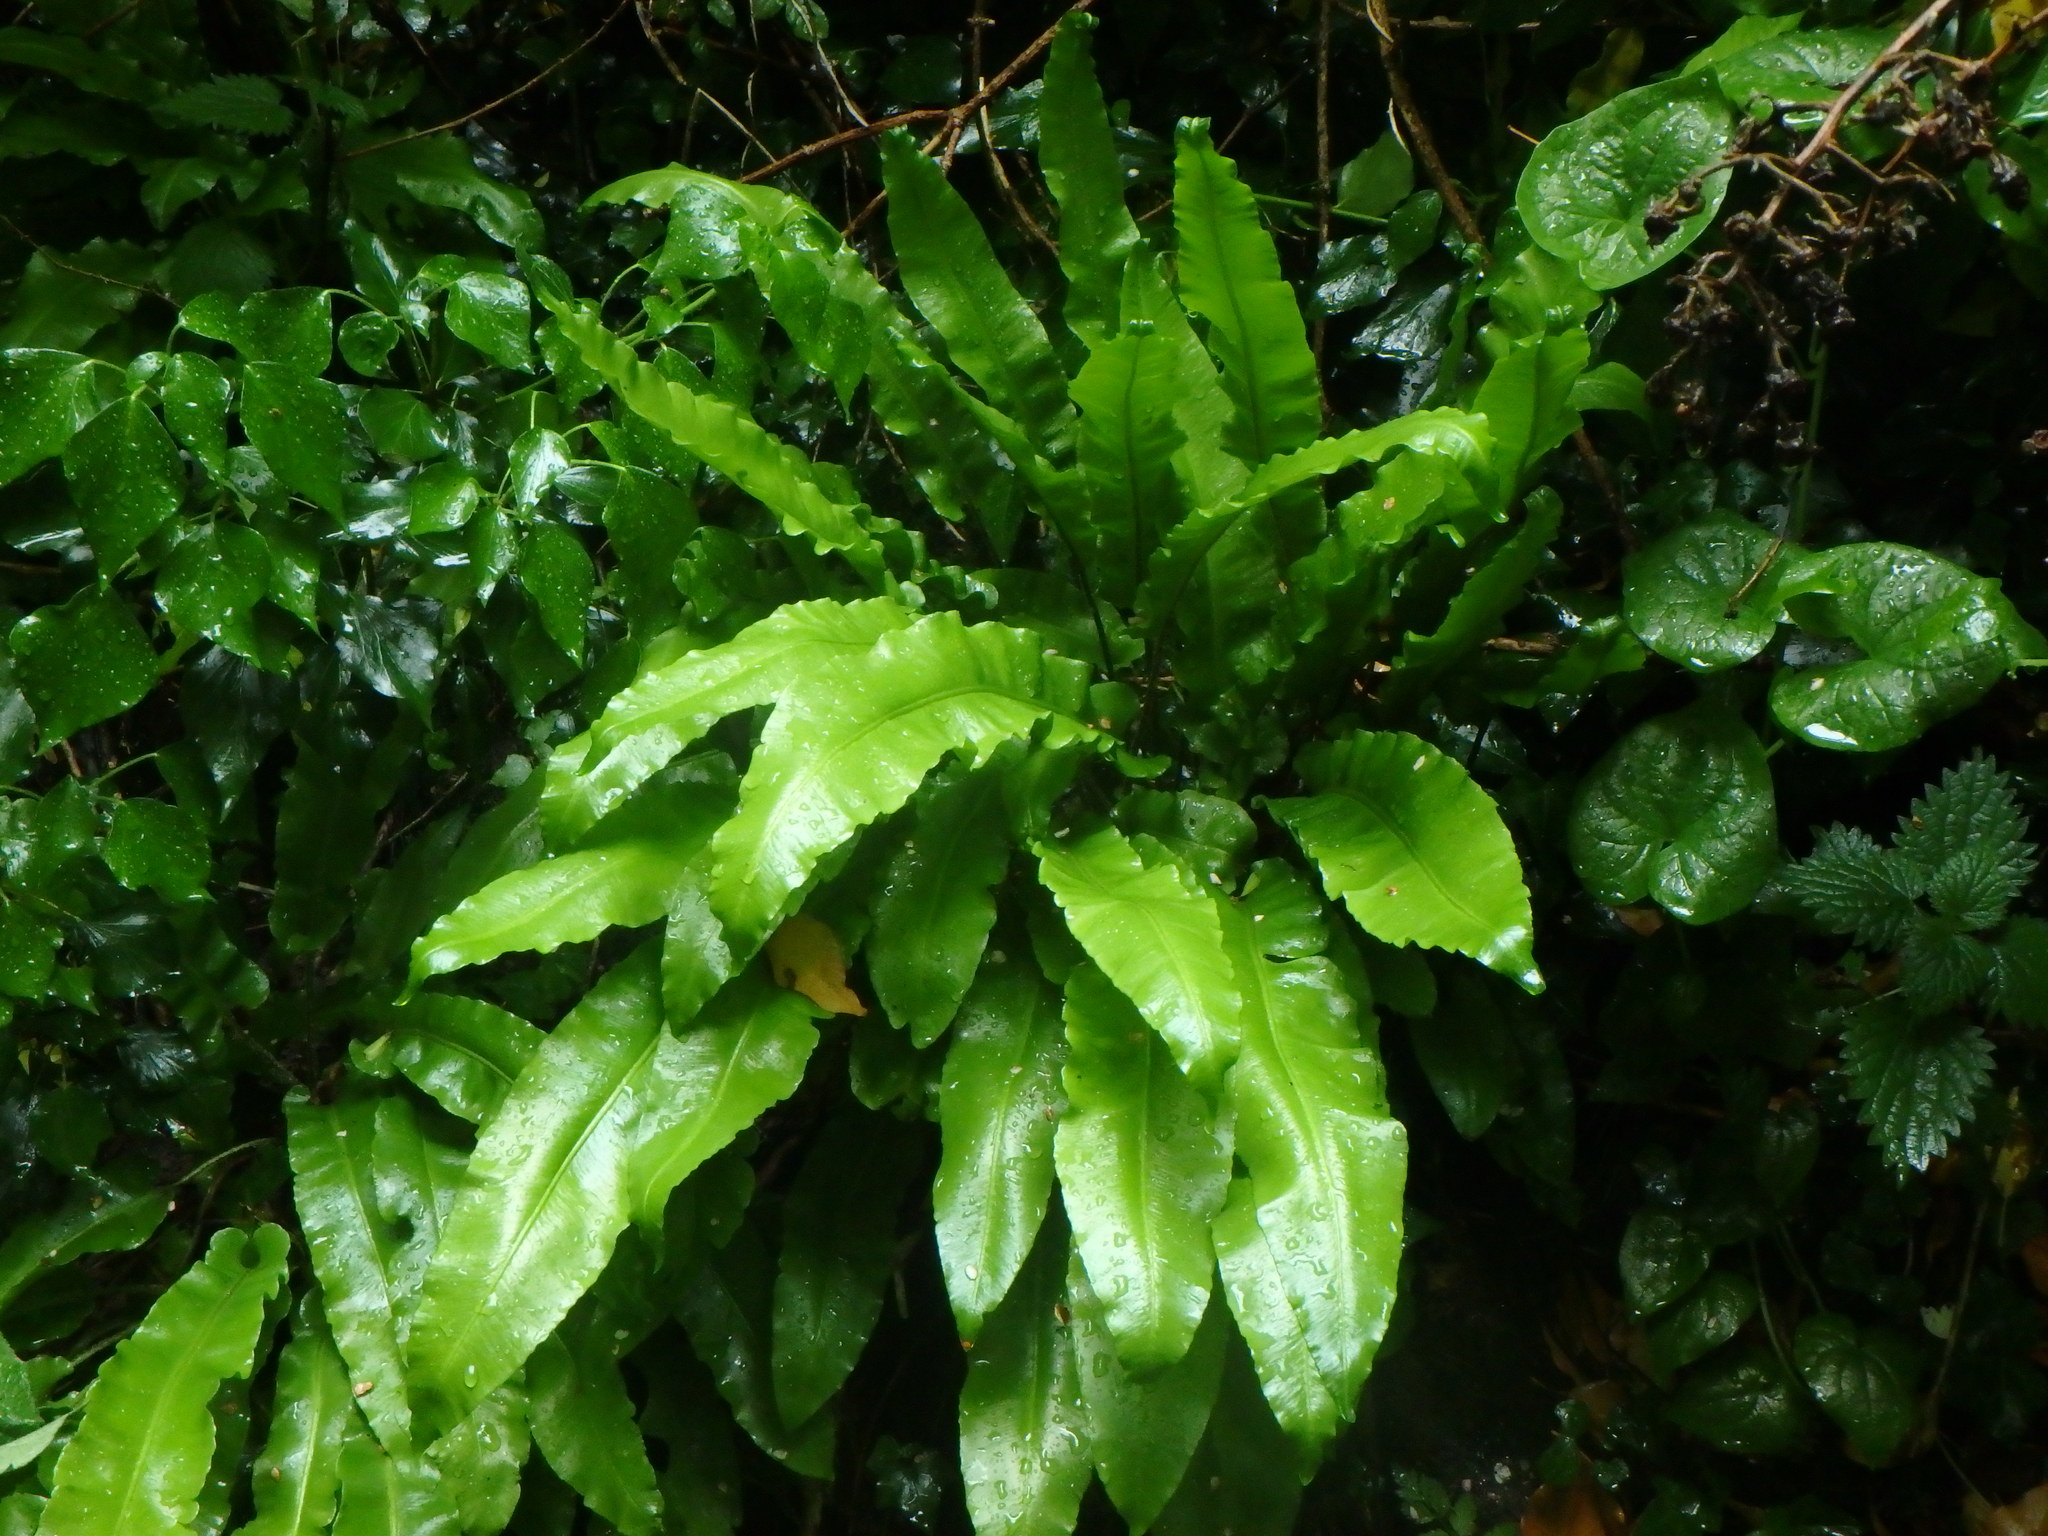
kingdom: Plantae
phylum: Tracheophyta
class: Polypodiopsida
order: Polypodiales
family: Aspleniaceae
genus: Asplenium
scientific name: Asplenium scolopendrium
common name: Hart's-tongue fern
